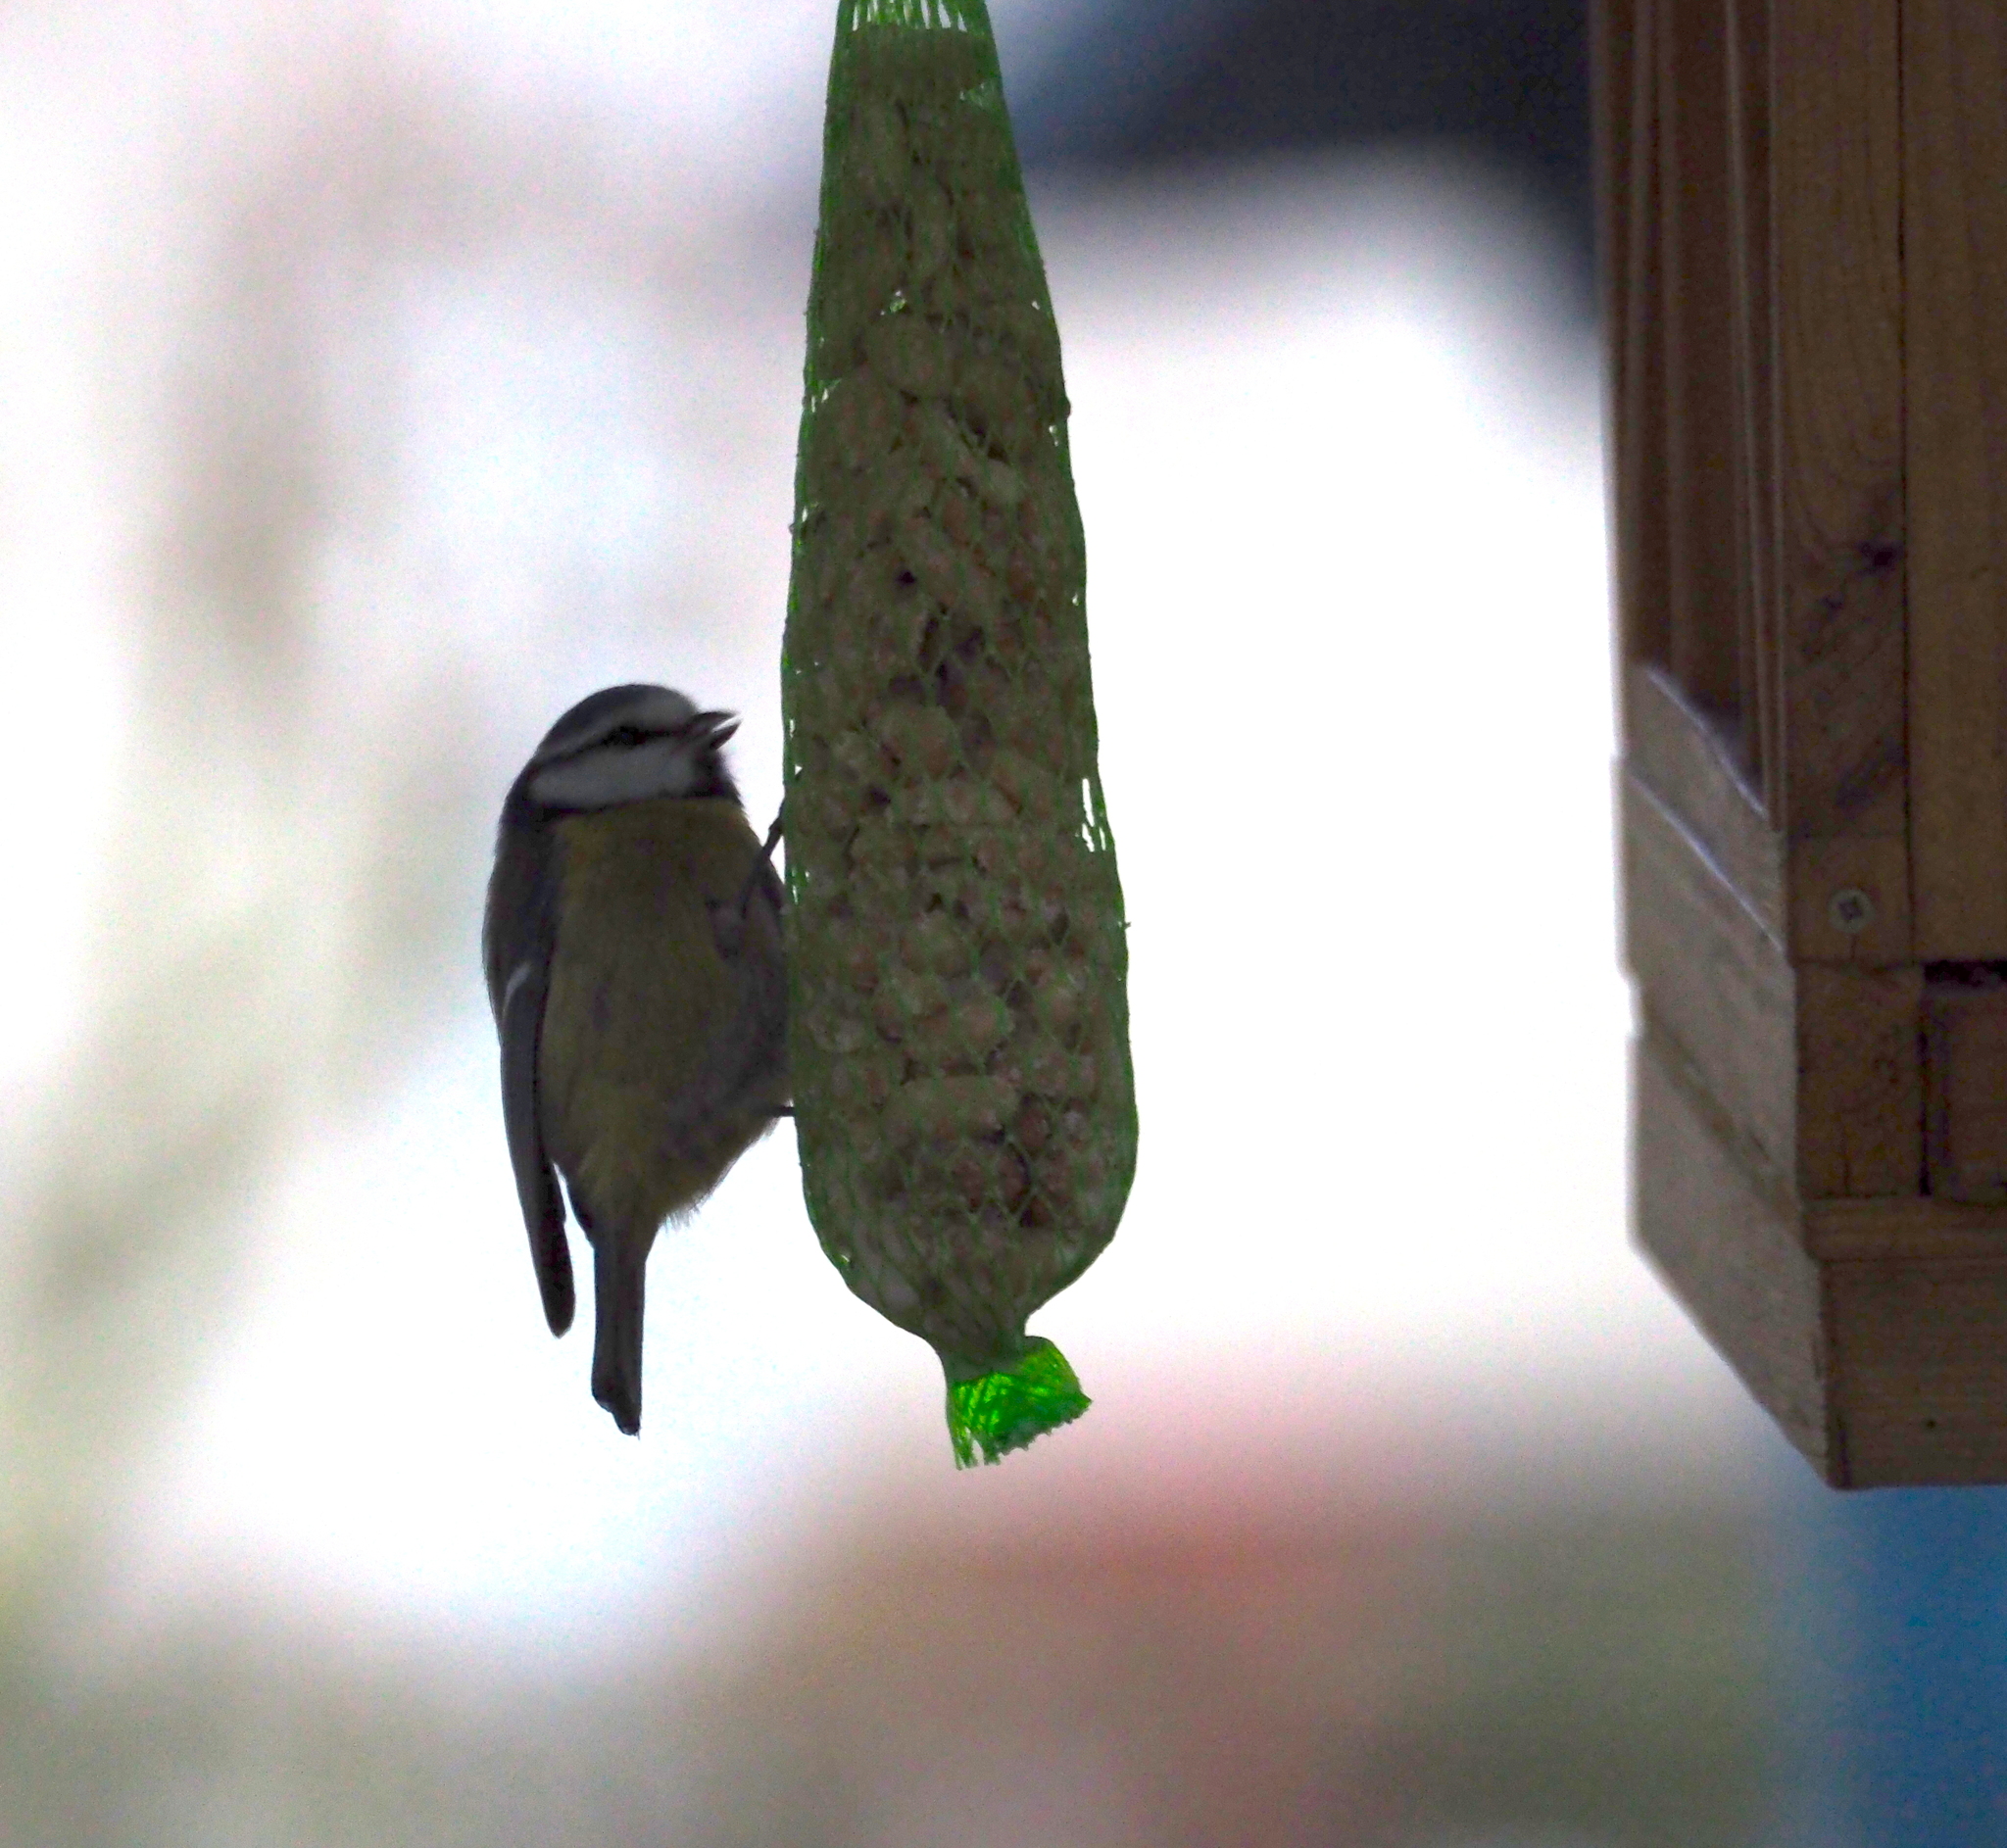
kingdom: Animalia
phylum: Chordata
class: Aves
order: Passeriformes
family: Paridae
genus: Cyanistes
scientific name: Cyanistes caeruleus
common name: Eurasian blue tit
